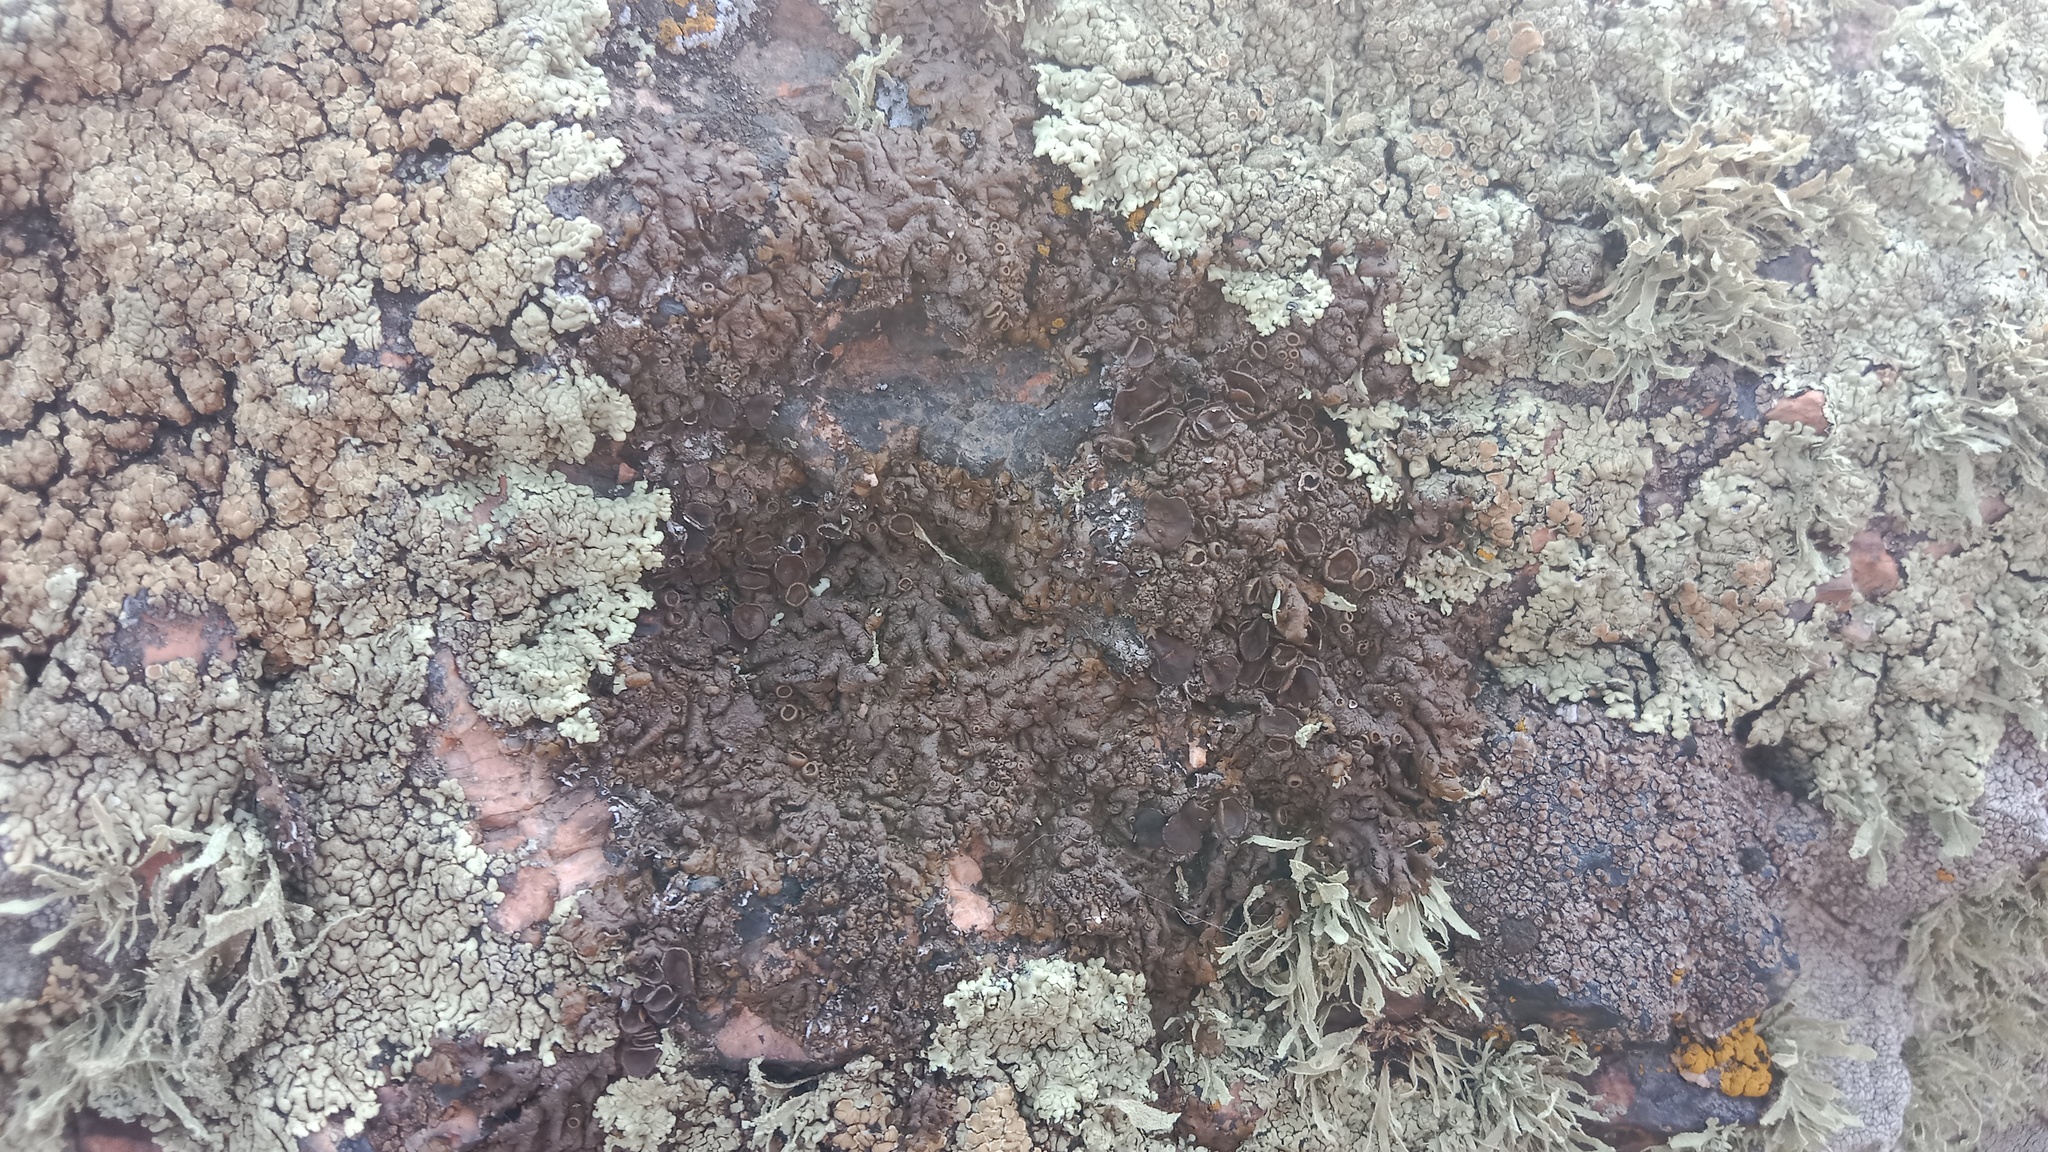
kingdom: Fungi
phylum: Ascomycota
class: Lecanoromycetes
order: Lecanorales
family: Parmeliaceae
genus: Xanthoparmelia
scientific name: Xanthoparmelia pulla
